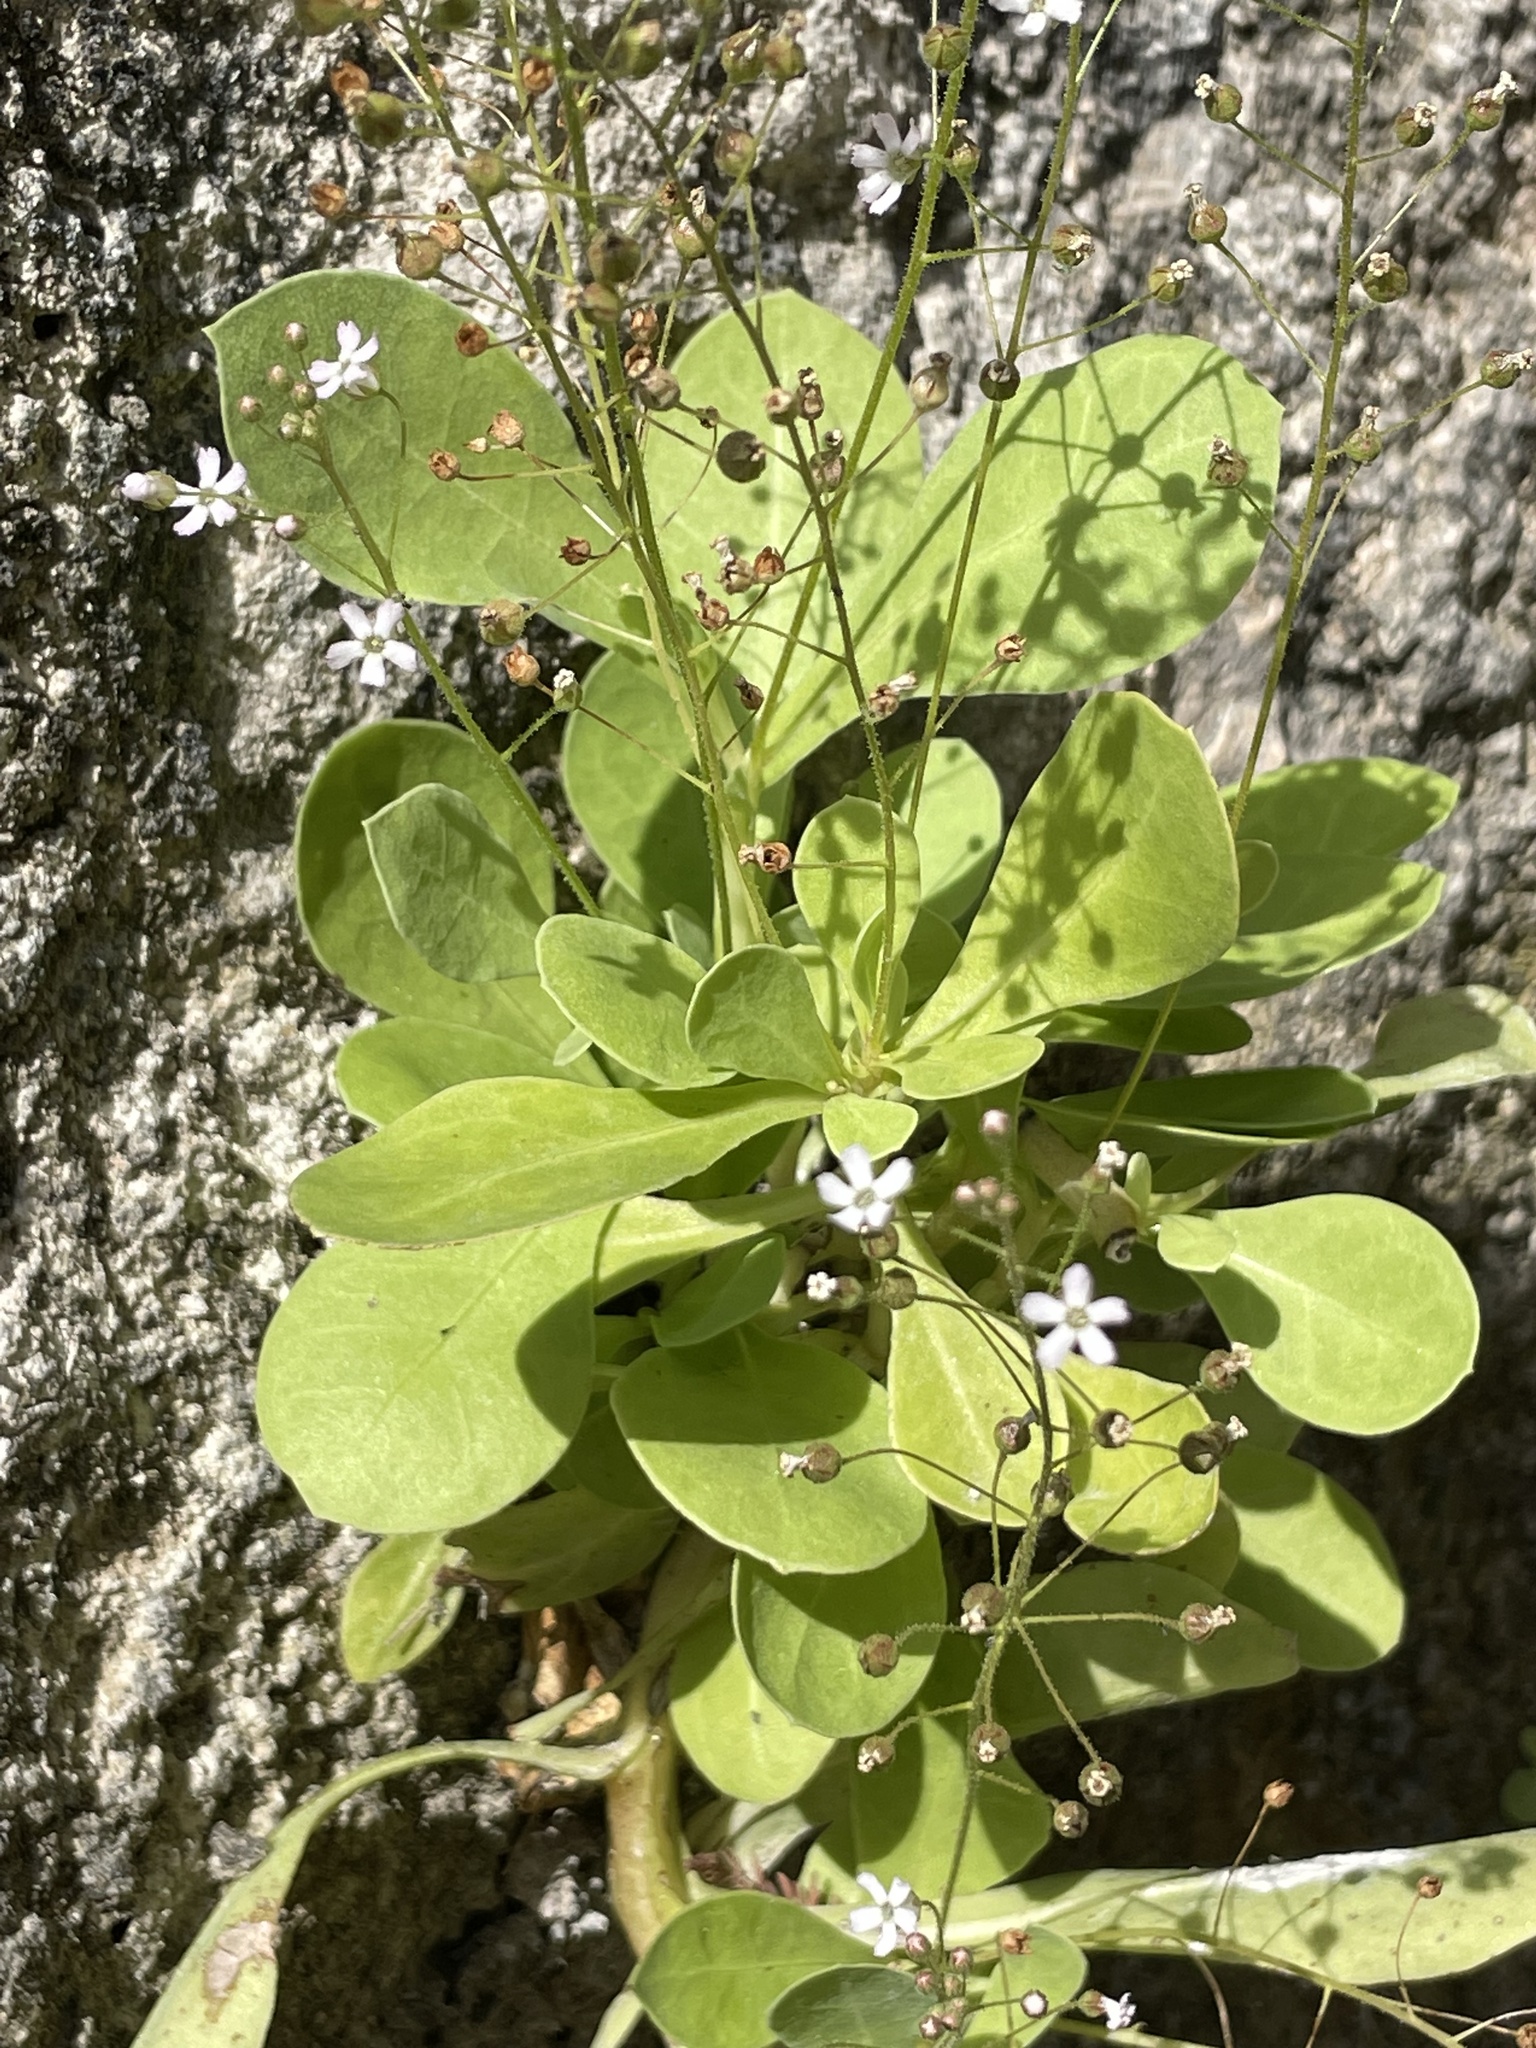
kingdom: Plantae
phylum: Tracheophyta
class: Magnoliopsida
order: Ericales
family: Primulaceae
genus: Samolus
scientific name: Samolus ebracteatus
